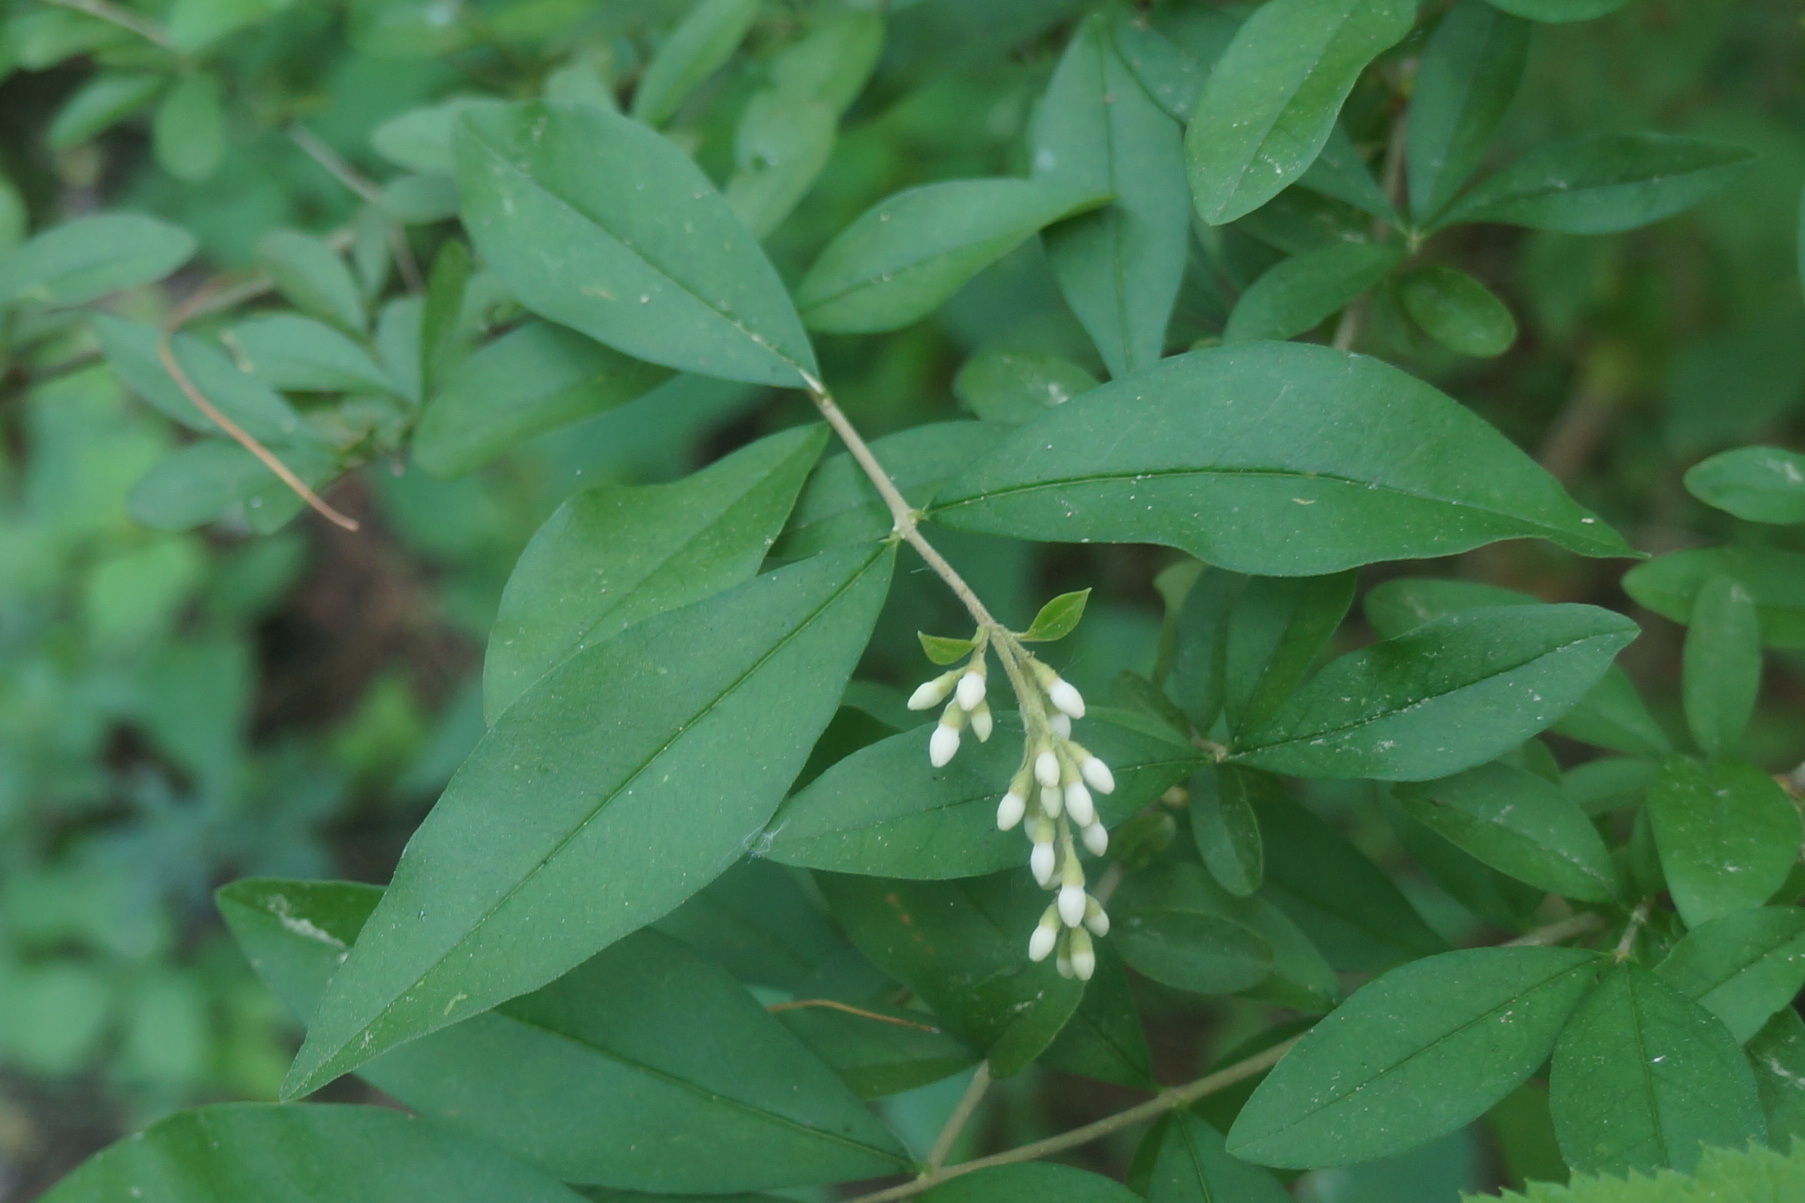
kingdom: Plantae
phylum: Tracheophyta
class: Magnoliopsida
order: Lamiales
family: Oleaceae
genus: Ligustrum
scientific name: Ligustrum vulgare
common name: Wild privet
